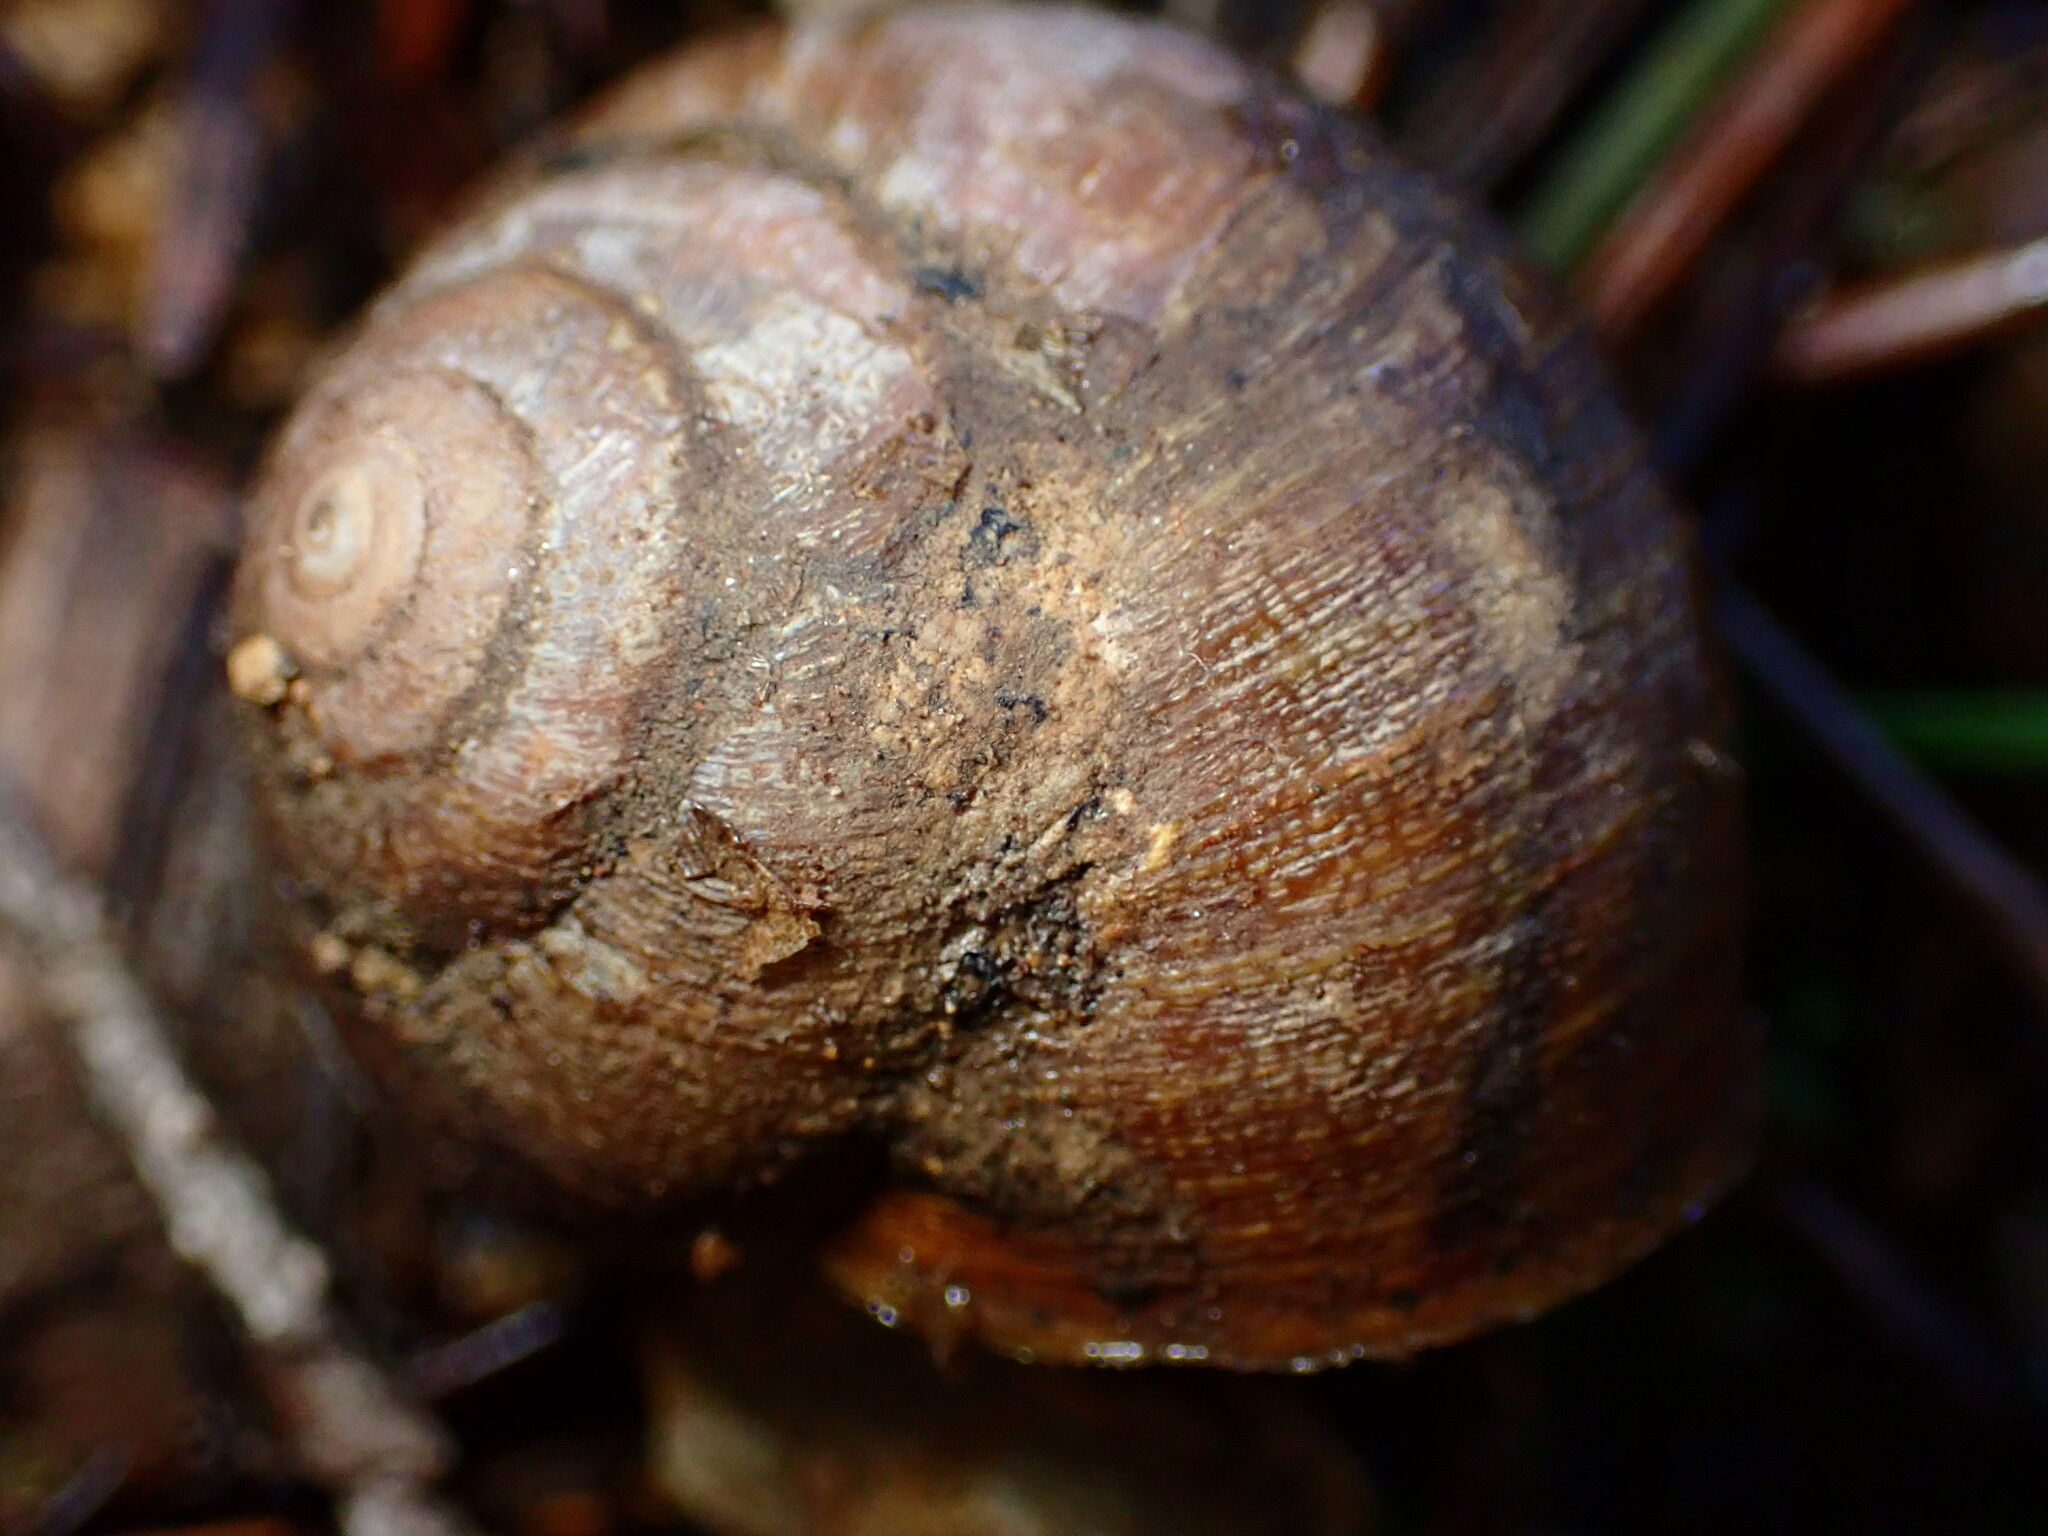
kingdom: Animalia
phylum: Mollusca
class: Gastropoda
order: Stylommatophora
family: Xanthonychidae
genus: Helminthoglypta
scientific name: Helminthoglypta nickliniana
